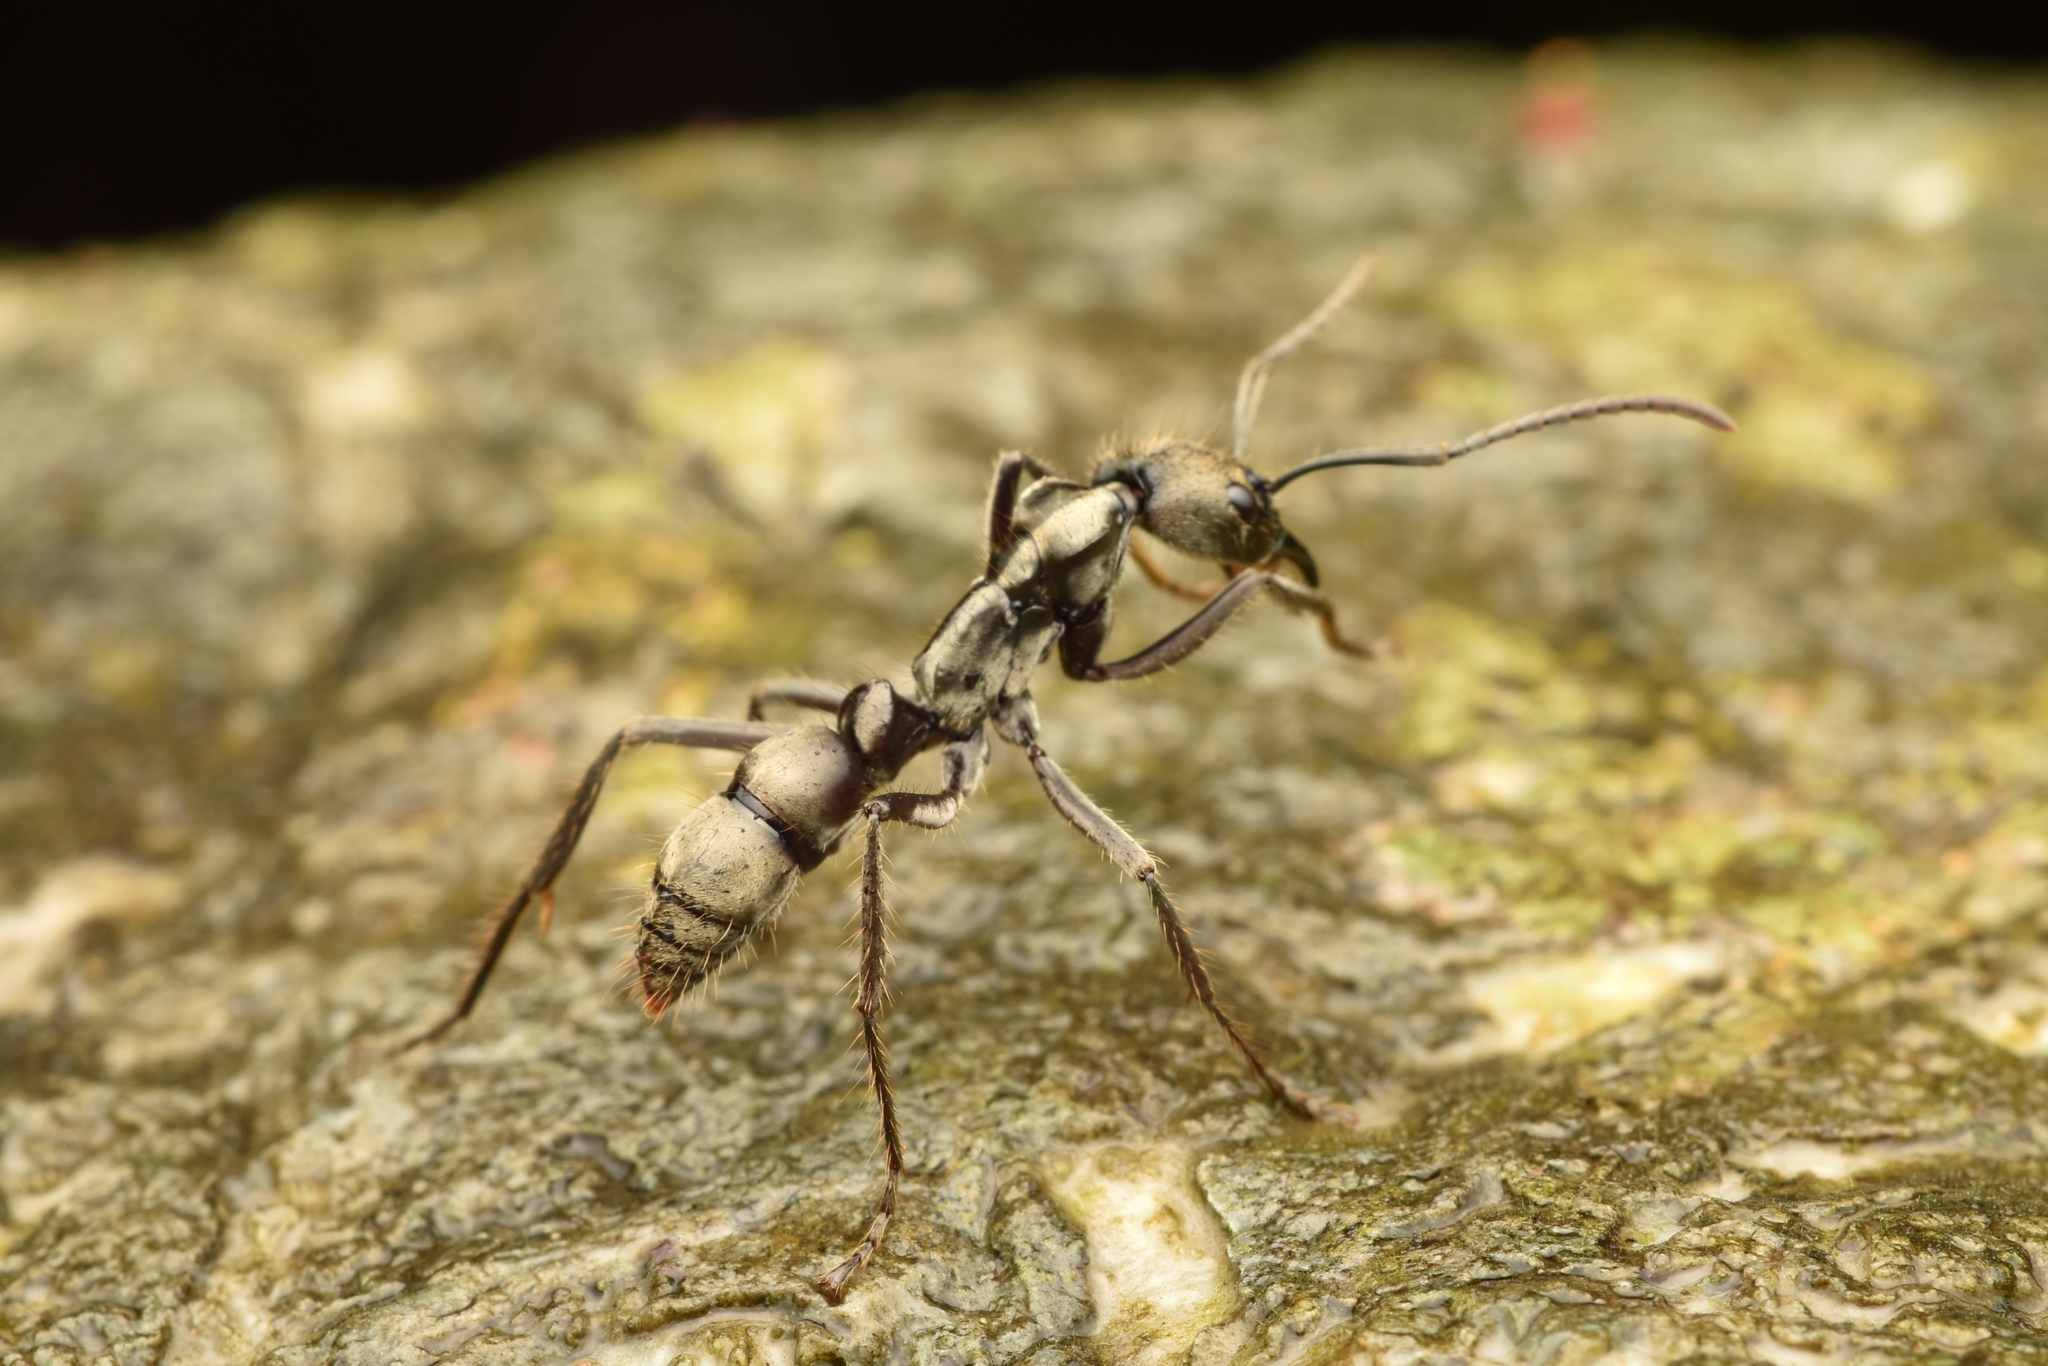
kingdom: Animalia
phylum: Arthropoda
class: Insecta
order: Hymenoptera
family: Formicidae
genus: Neoponera
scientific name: Neoponera curvinodis
